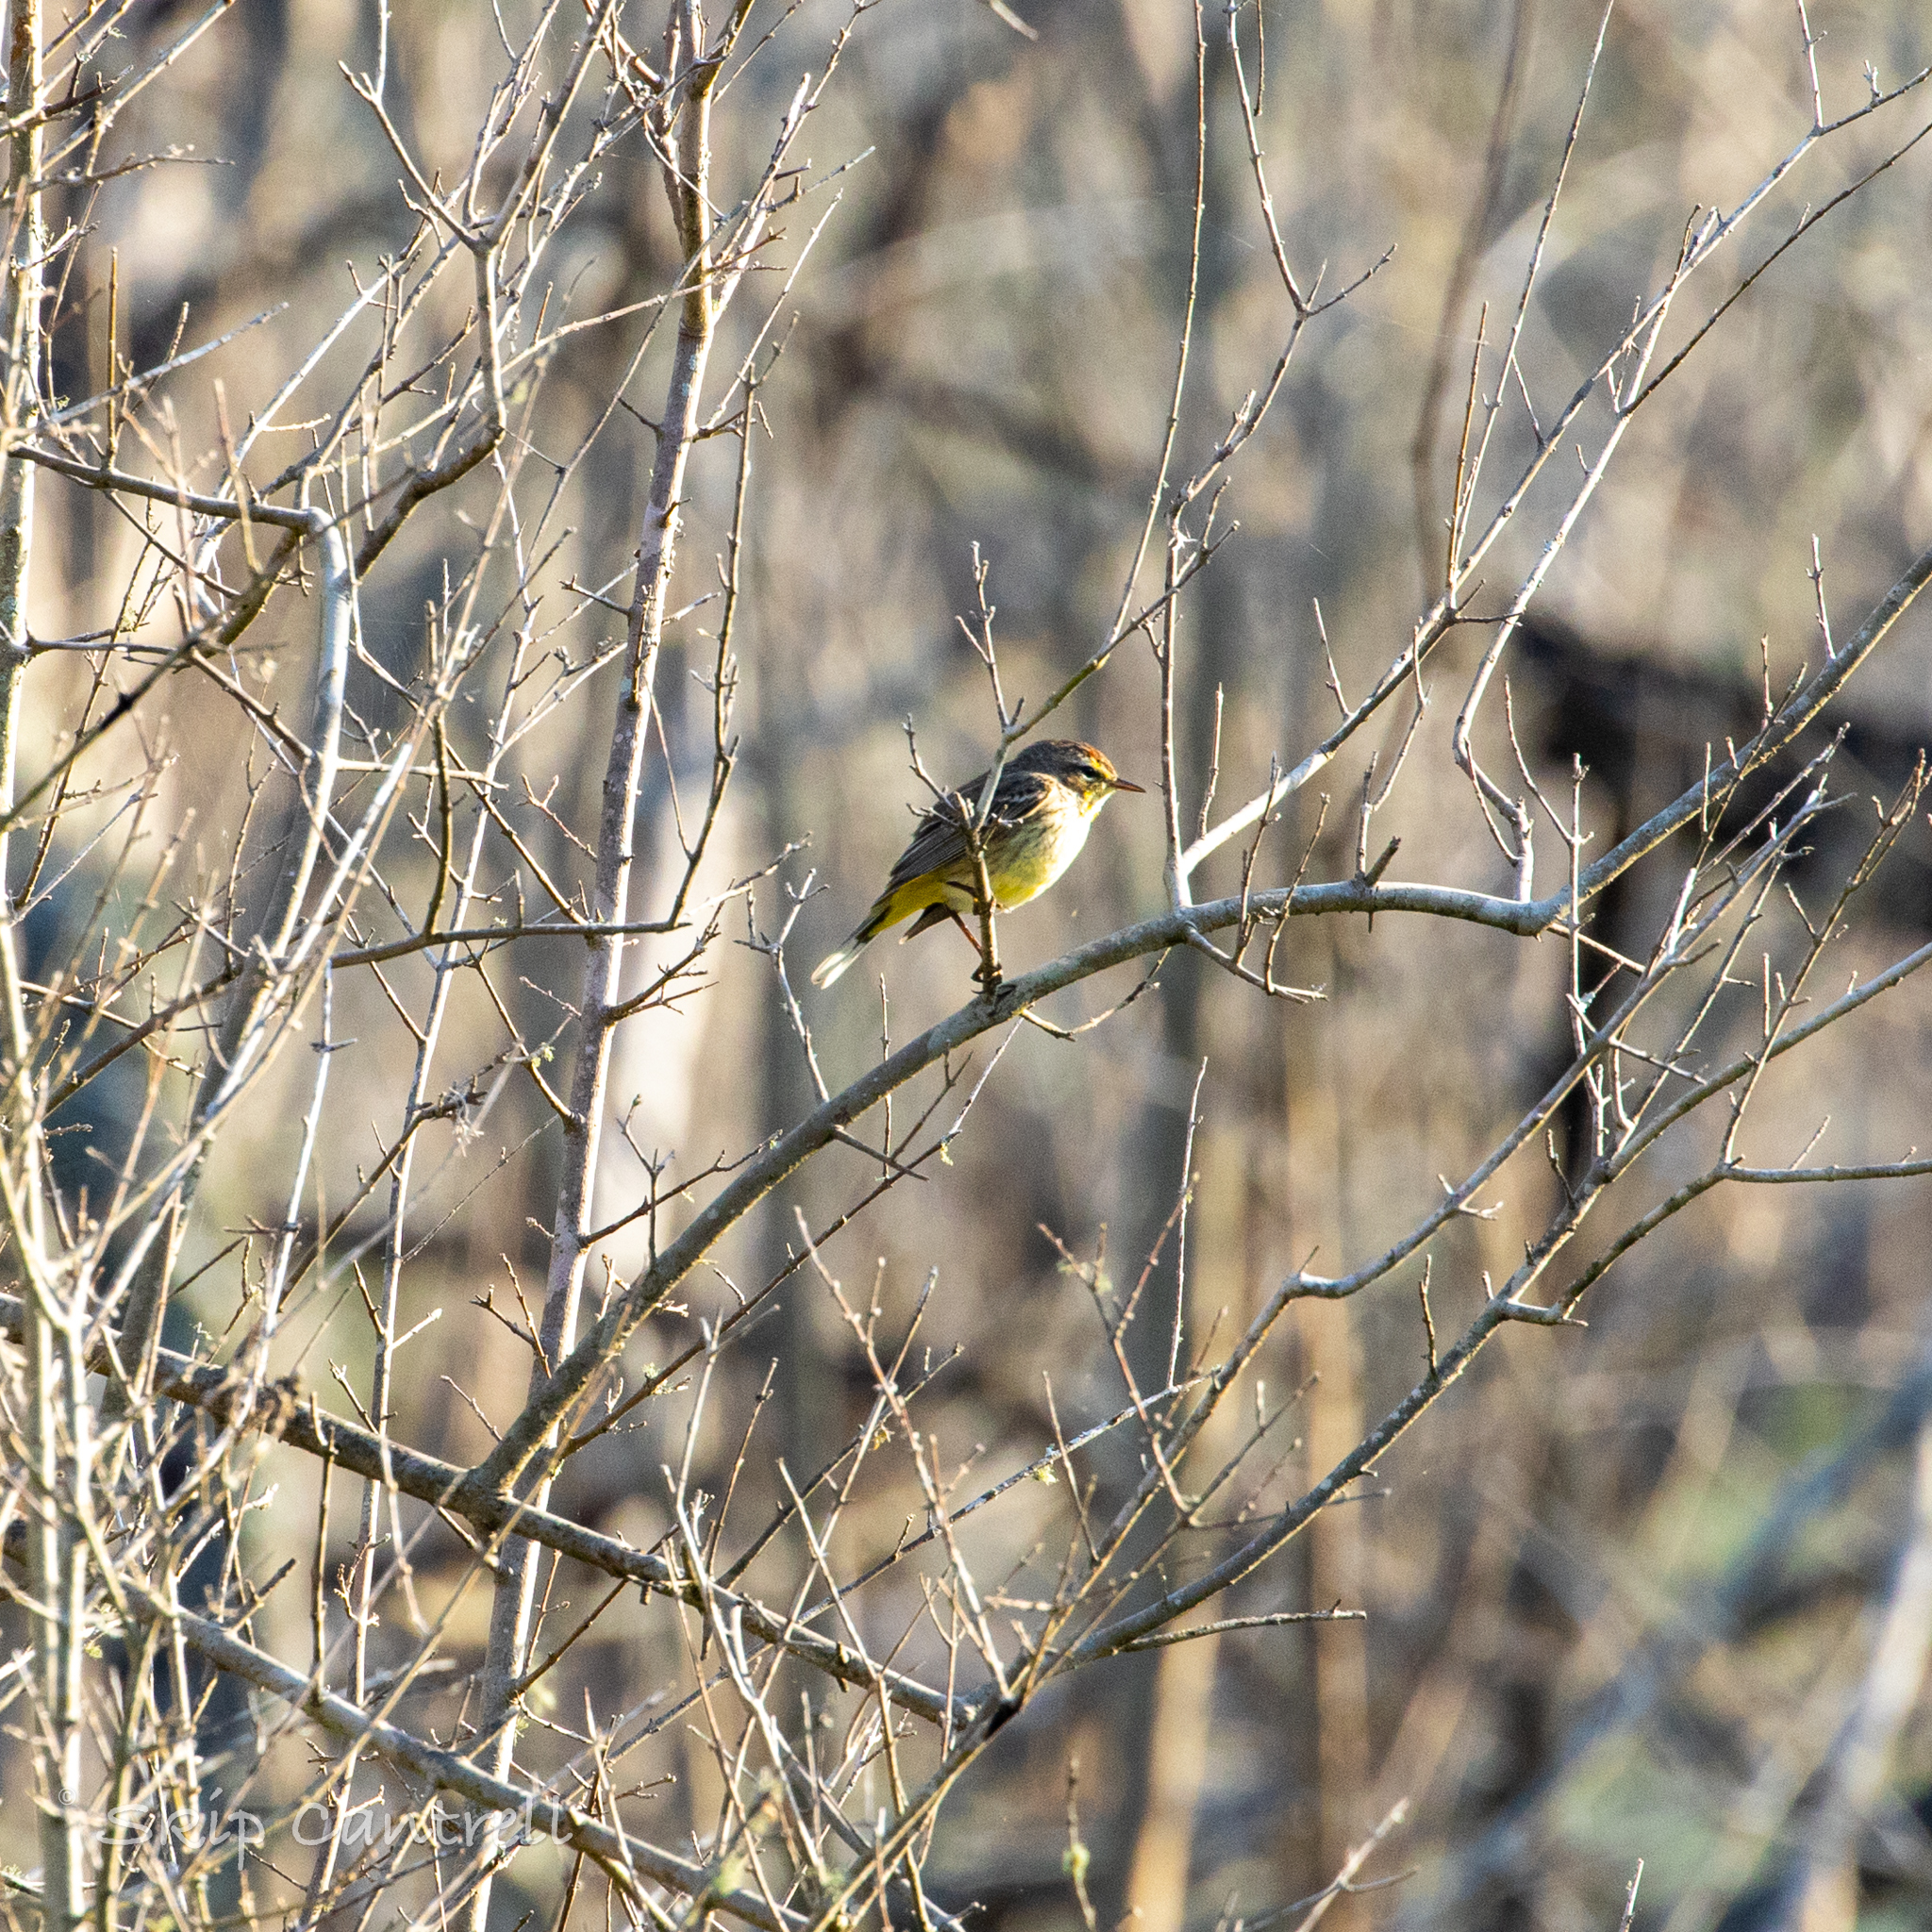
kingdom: Animalia
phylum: Chordata
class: Aves
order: Passeriformes
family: Parulidae
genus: Setophaga
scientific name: Setophaga palmarum
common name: Palm warbler
